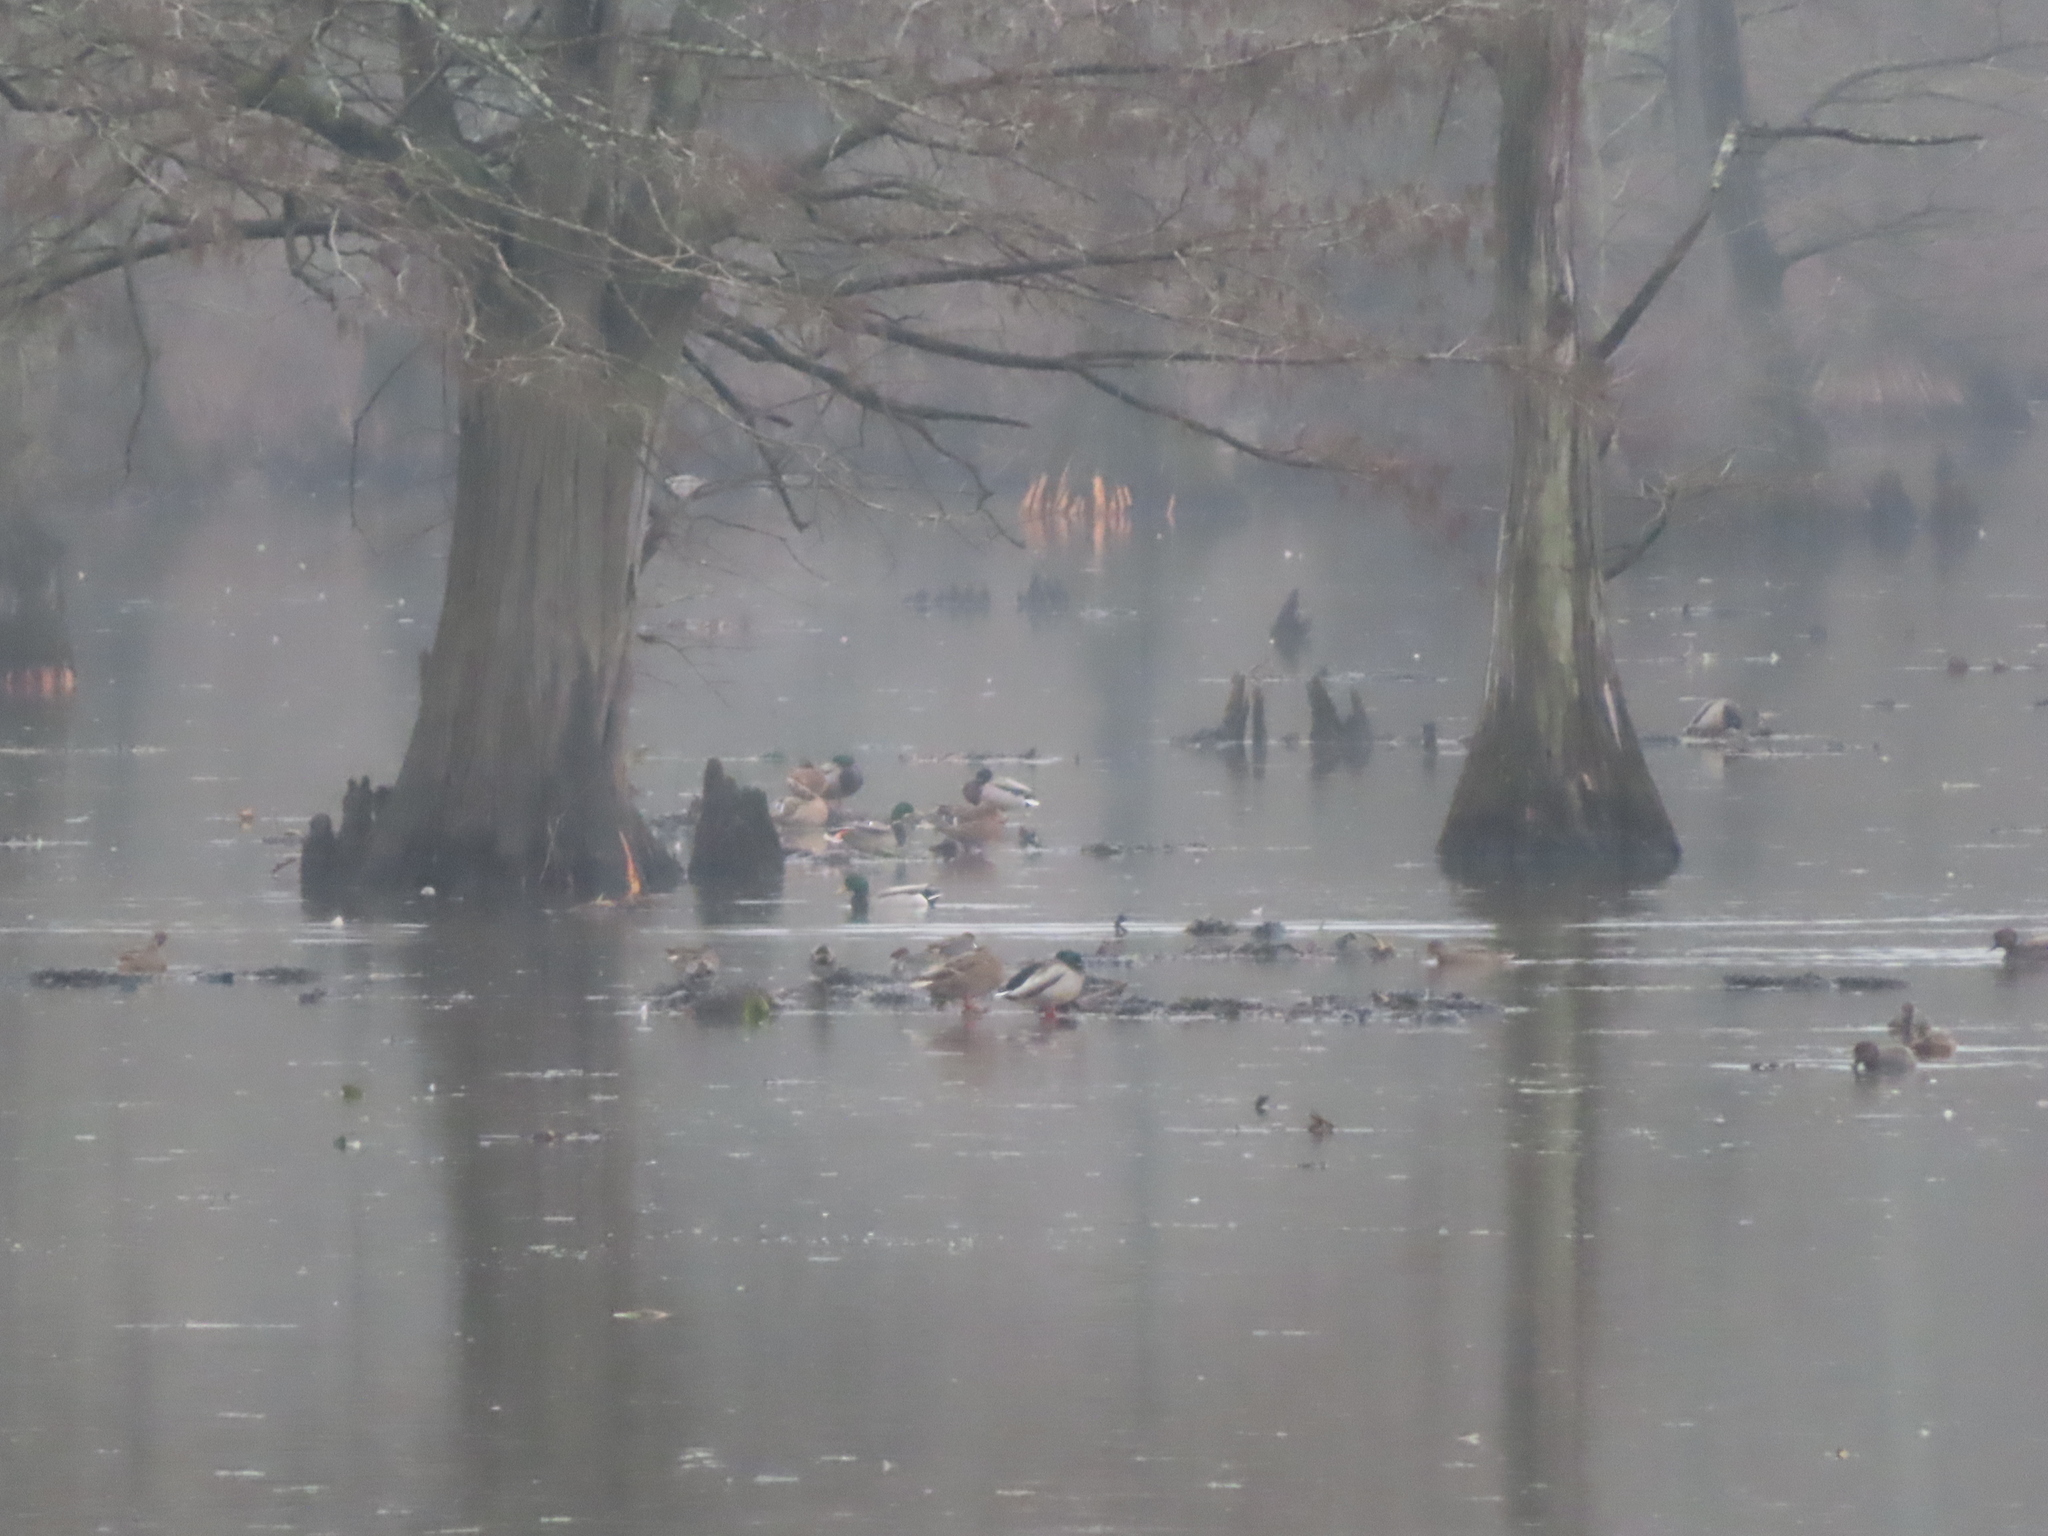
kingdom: Animalia
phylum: Chordata
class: Aves
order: Anseriformes
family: Anatidae
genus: Anas
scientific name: Anas platyrhynchos
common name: Mallard
